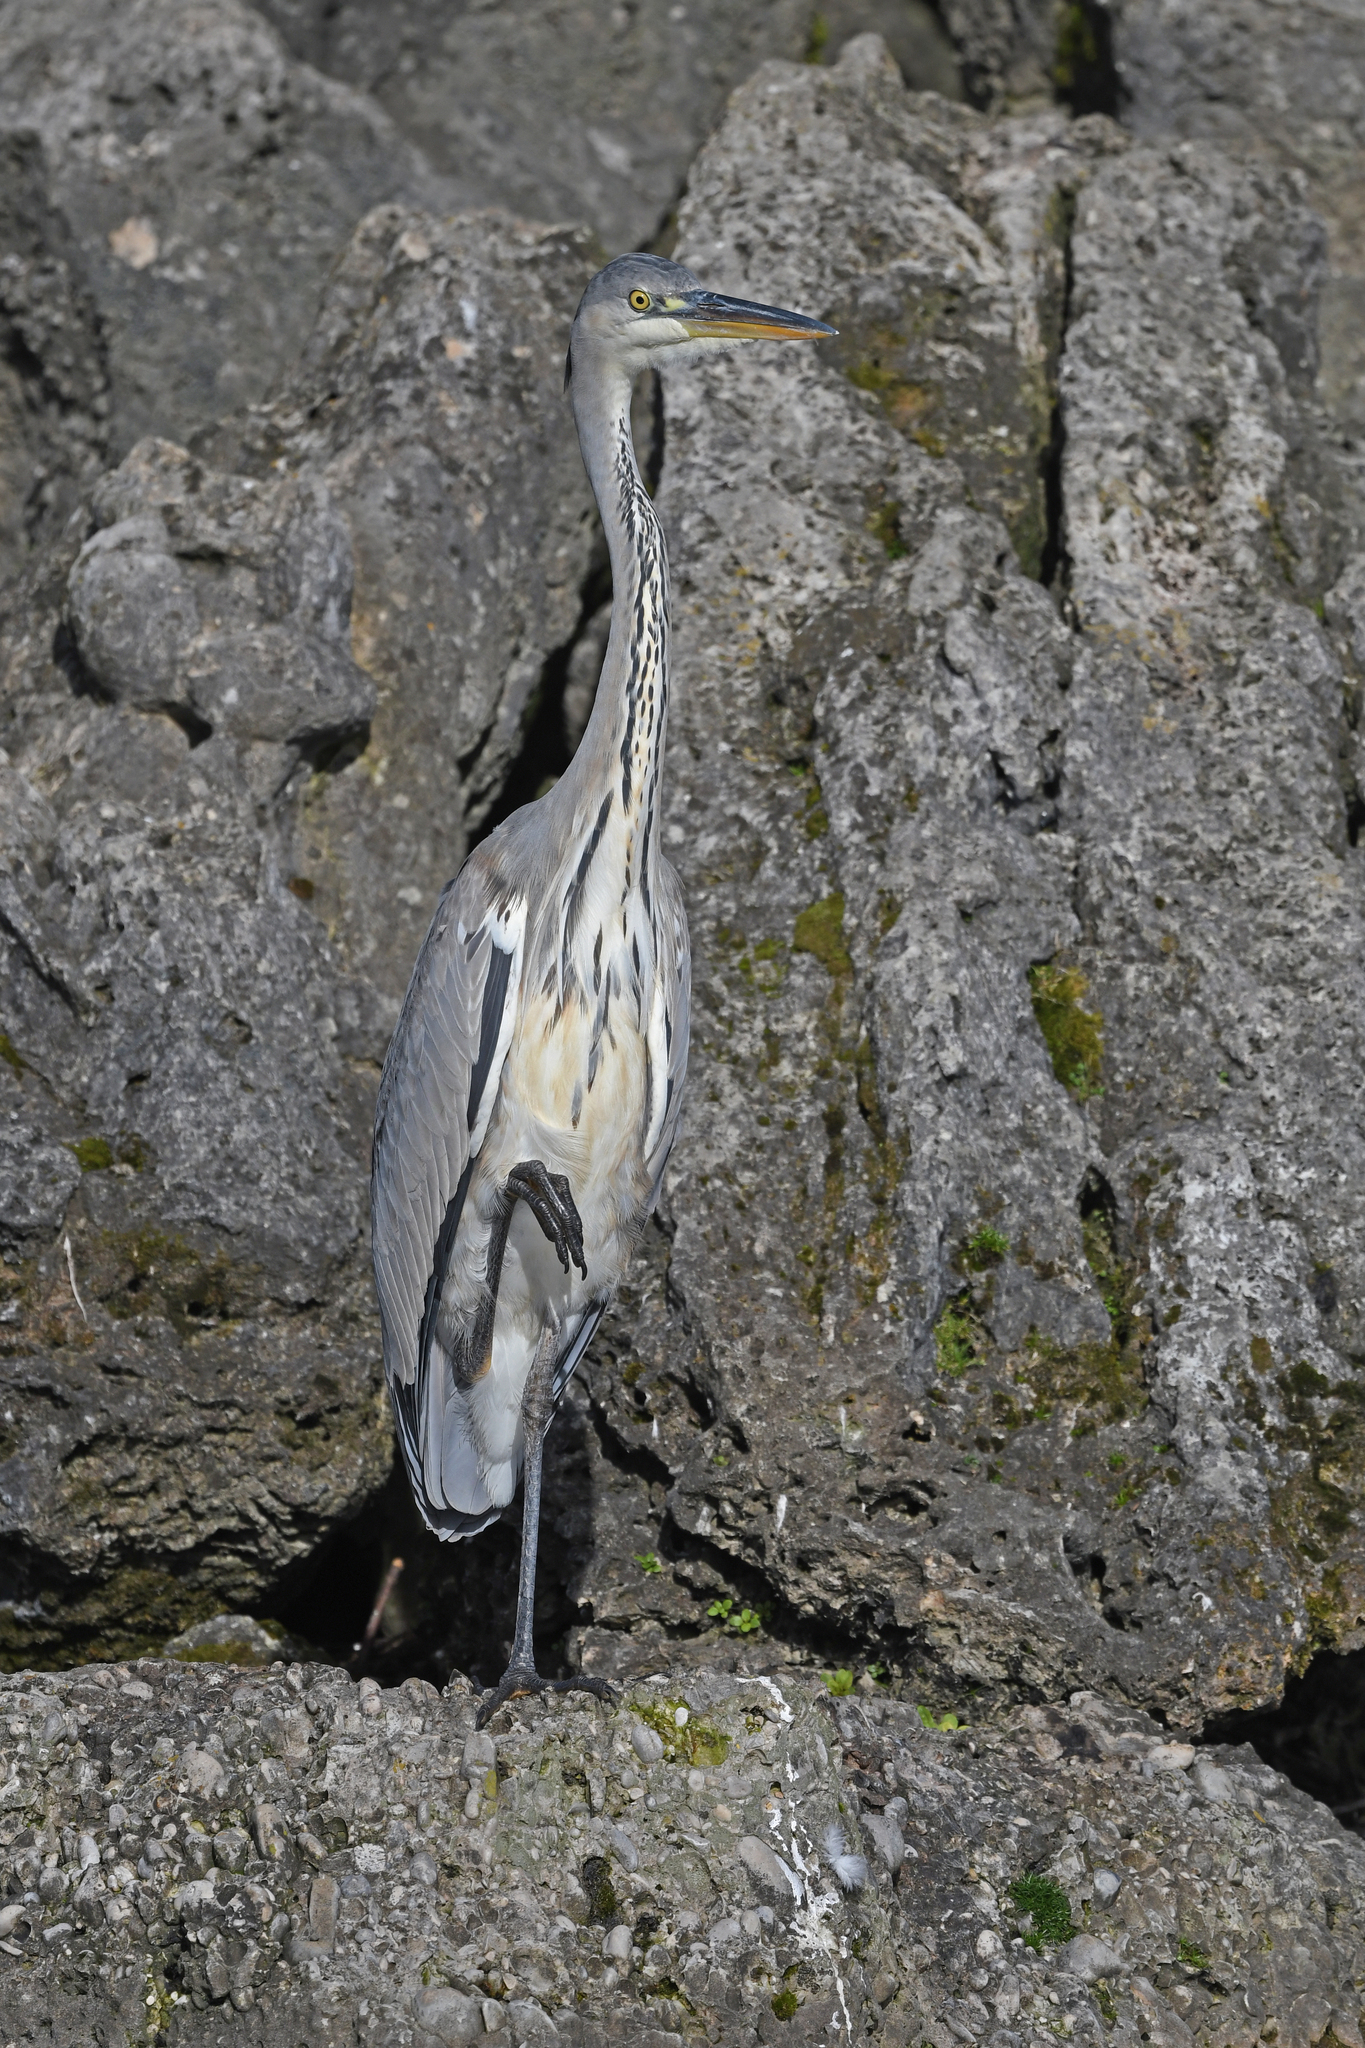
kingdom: Animalia
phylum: Chordata
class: Aves
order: Pelecaniformes
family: Ardeidae
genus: Ardea
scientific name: Ardea cinerea
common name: Grey heron
